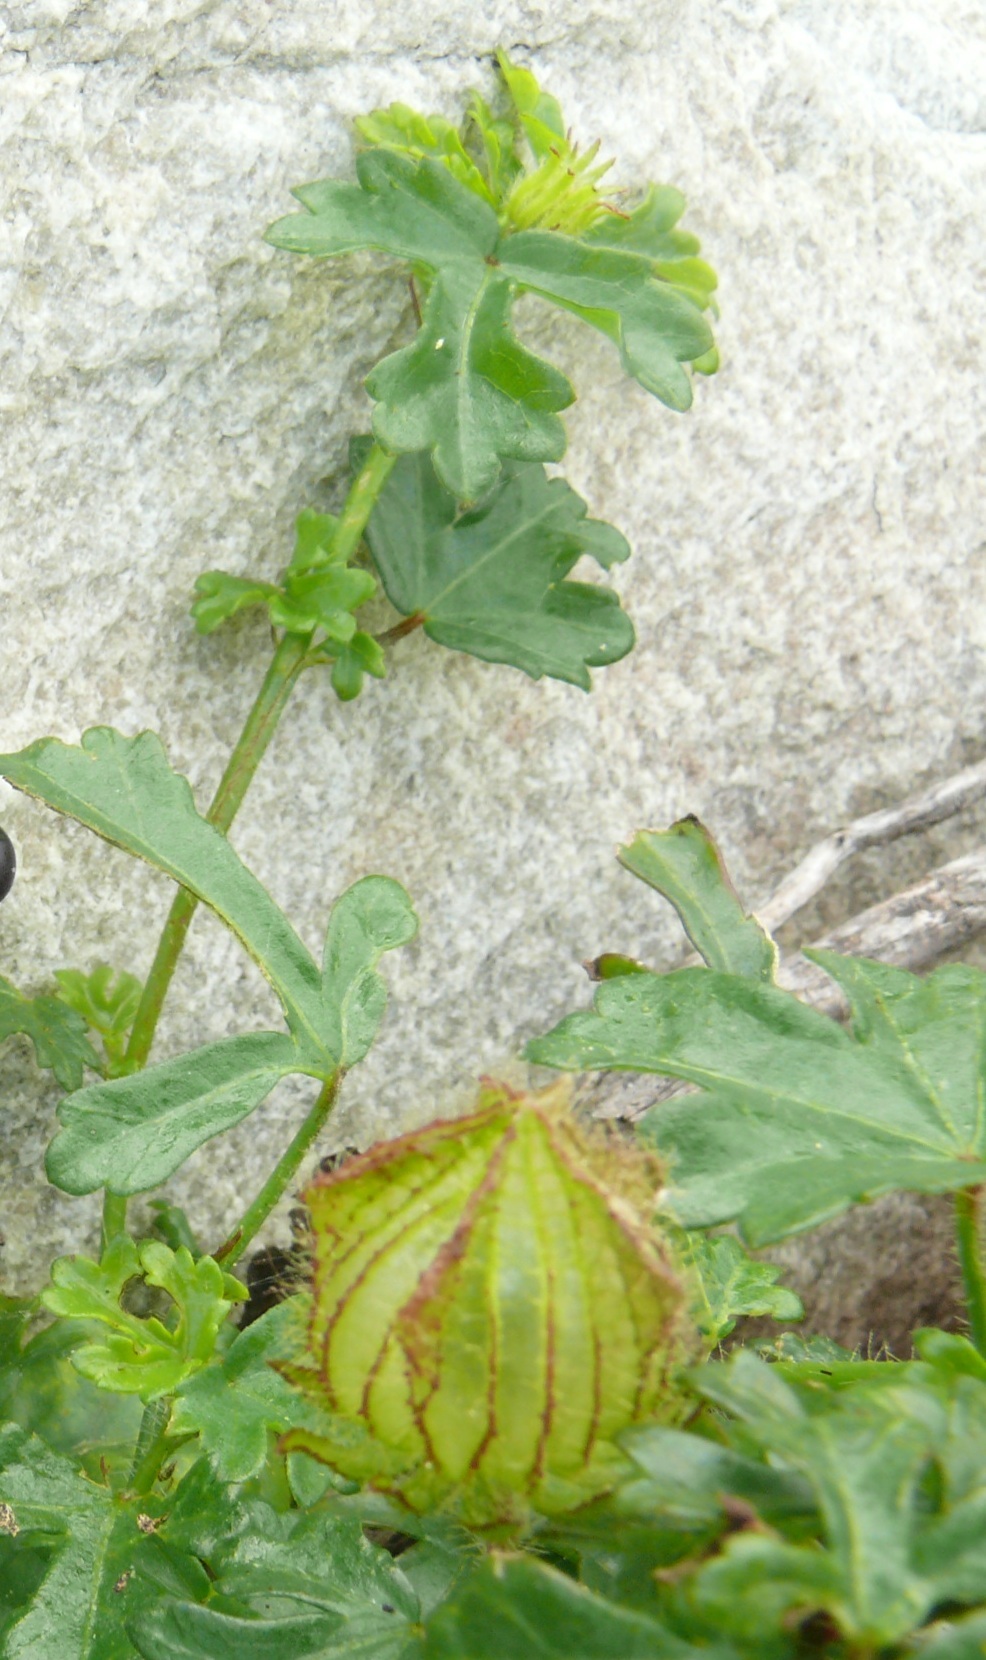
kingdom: Plantae
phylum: Tracheophyta
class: Magnoliopsida
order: Malvales
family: Malvaceae
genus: Hibiscus
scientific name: Hibiscus trionum
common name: Bladder ketmia
